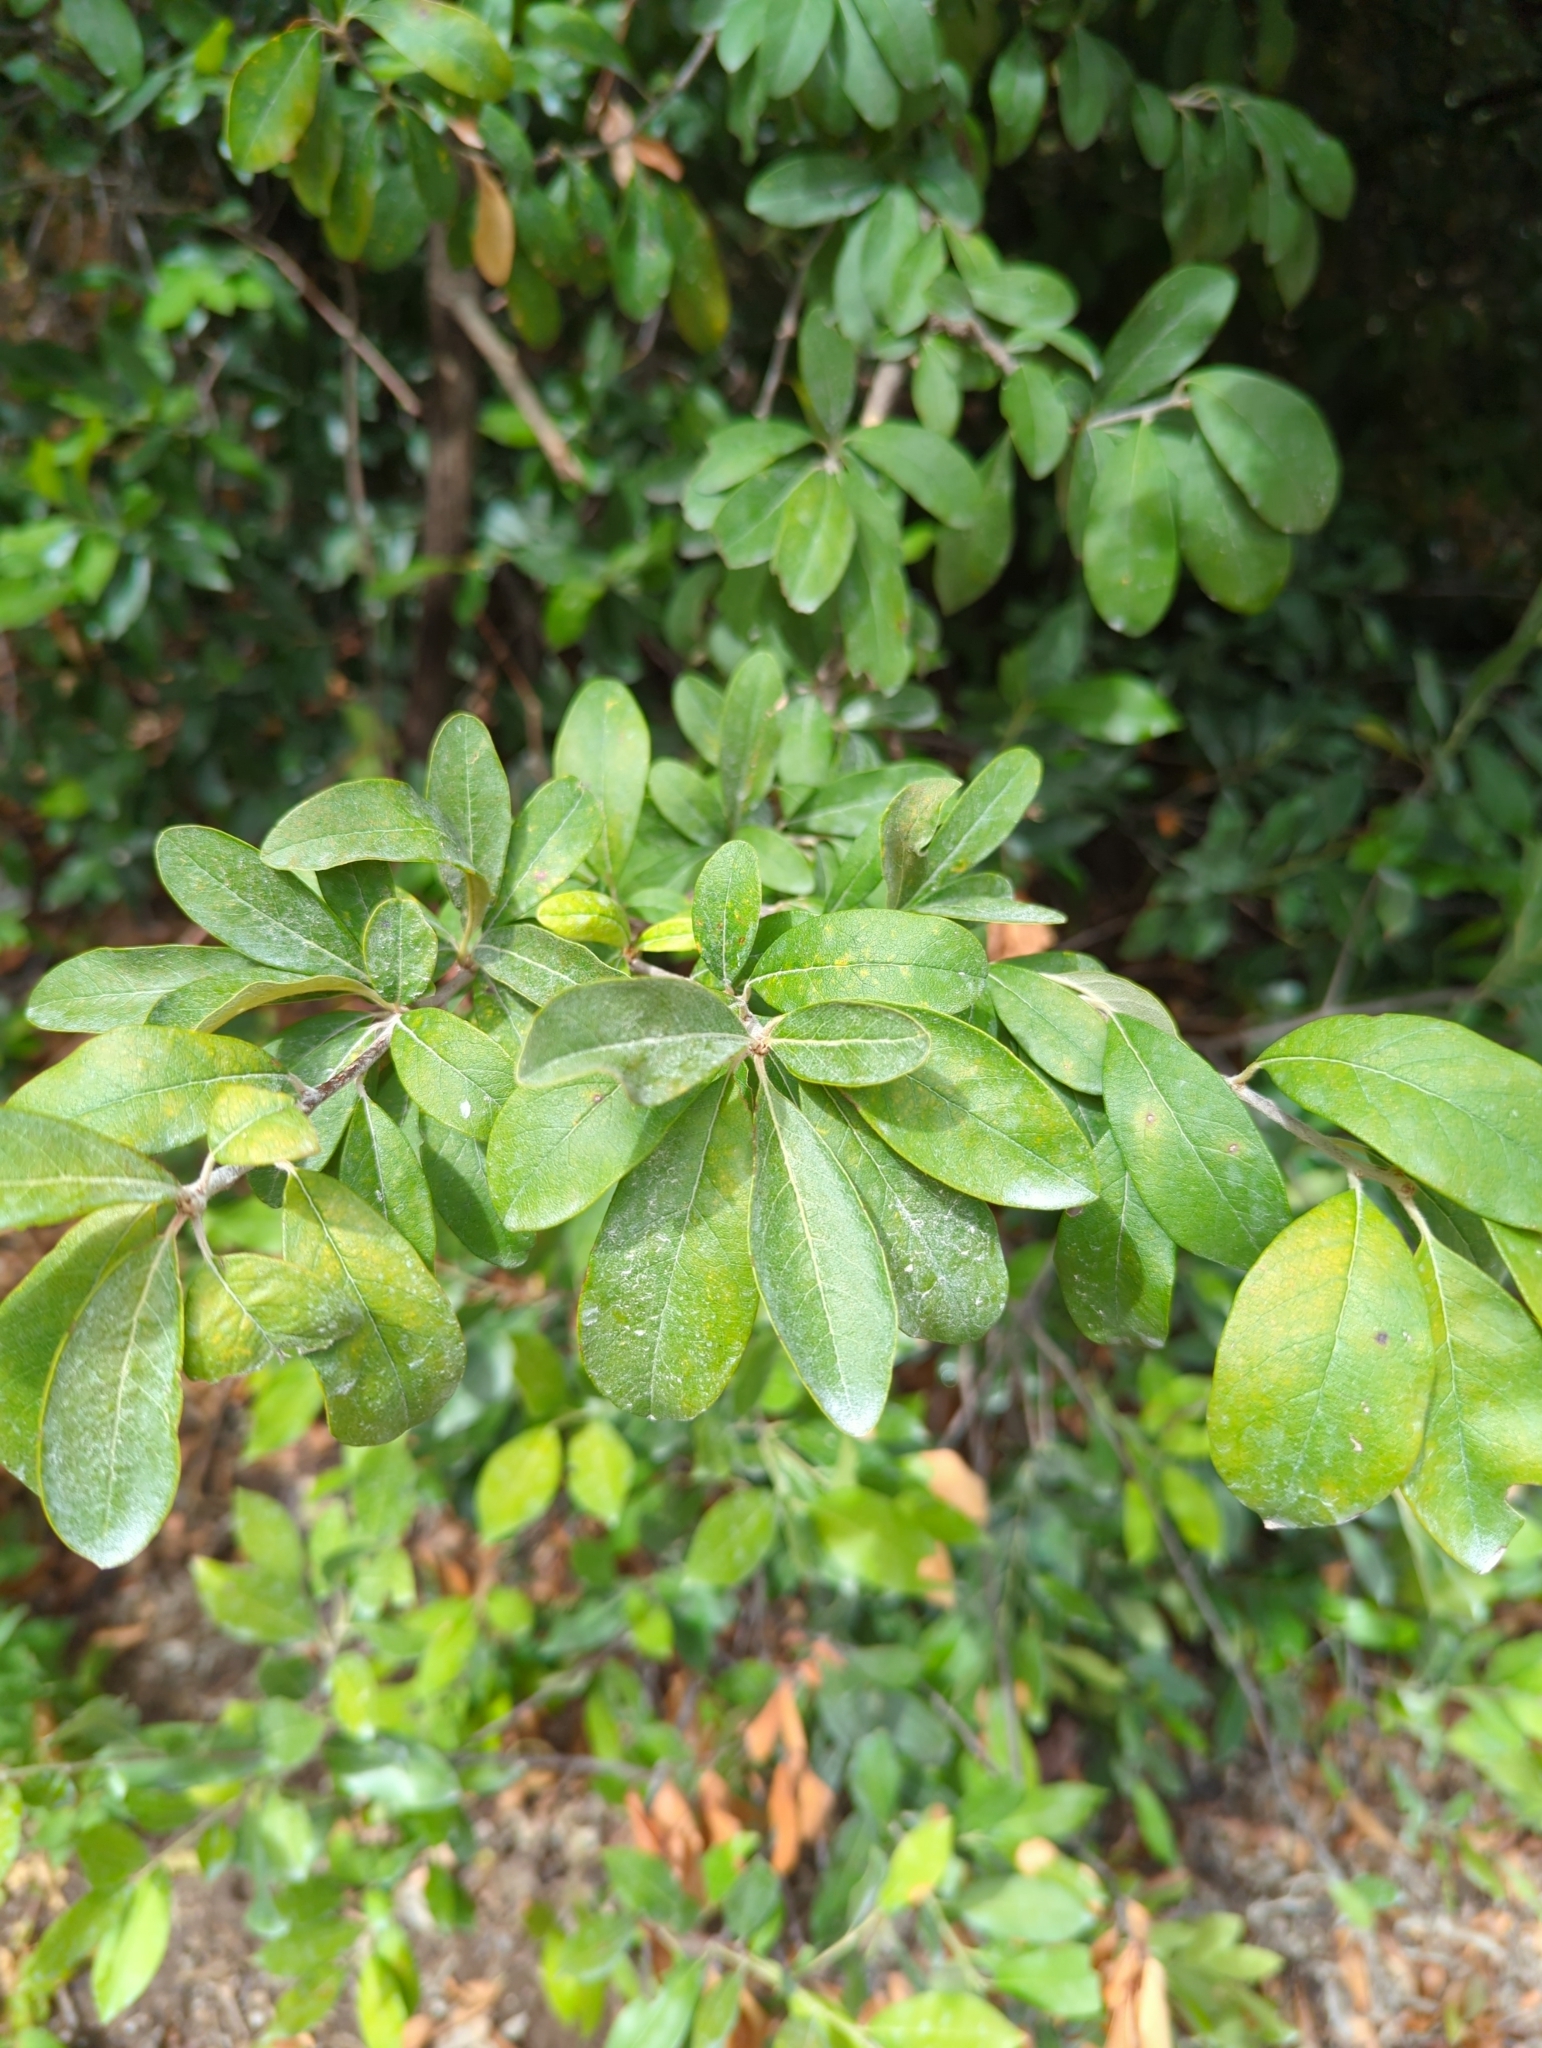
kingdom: Plantae
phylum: Tracheophyta
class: Magnoliopsida
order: Ericales
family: Sapotaceae
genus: Sideroxylon
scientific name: Sideroxylon lanuginosum
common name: Chittamwood
